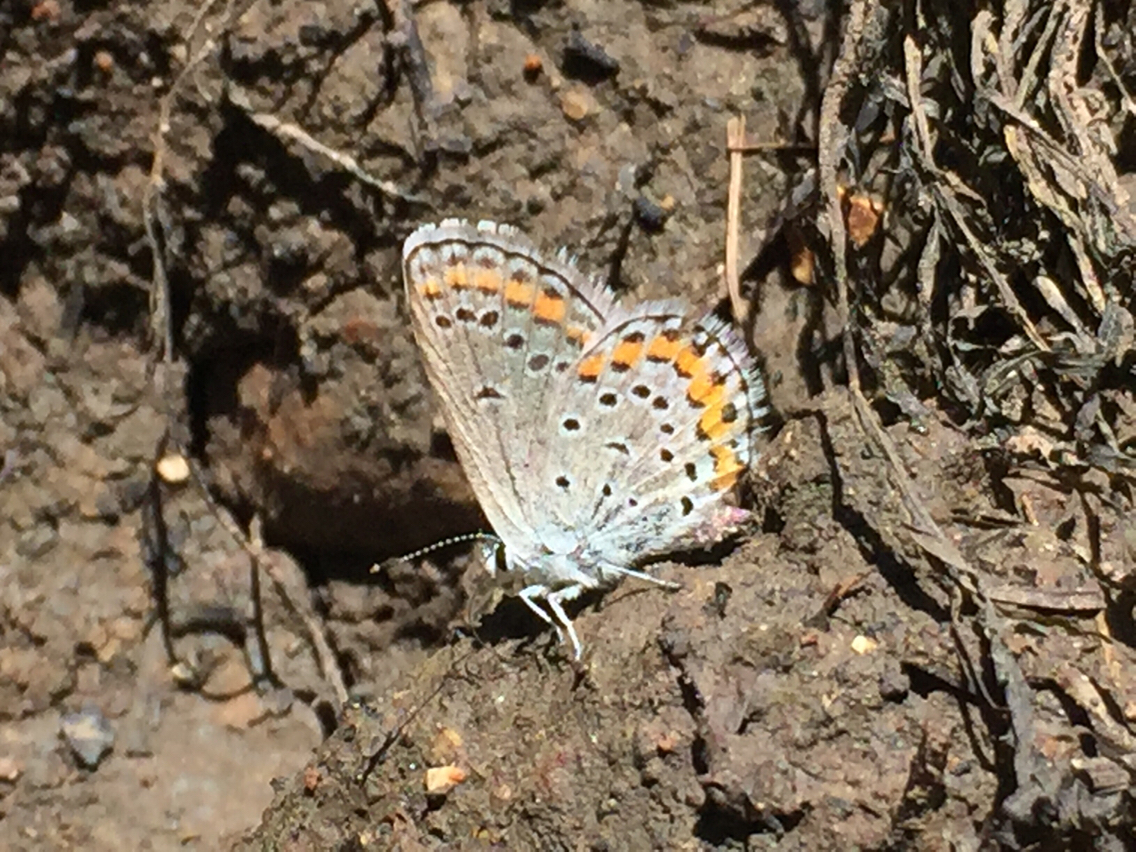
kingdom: Animalia
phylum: Arthropoda
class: Insecta
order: Lepidoptera
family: Lycaenidae
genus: Lycaeides
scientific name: Lycaeides melissa
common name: Melissa blue
